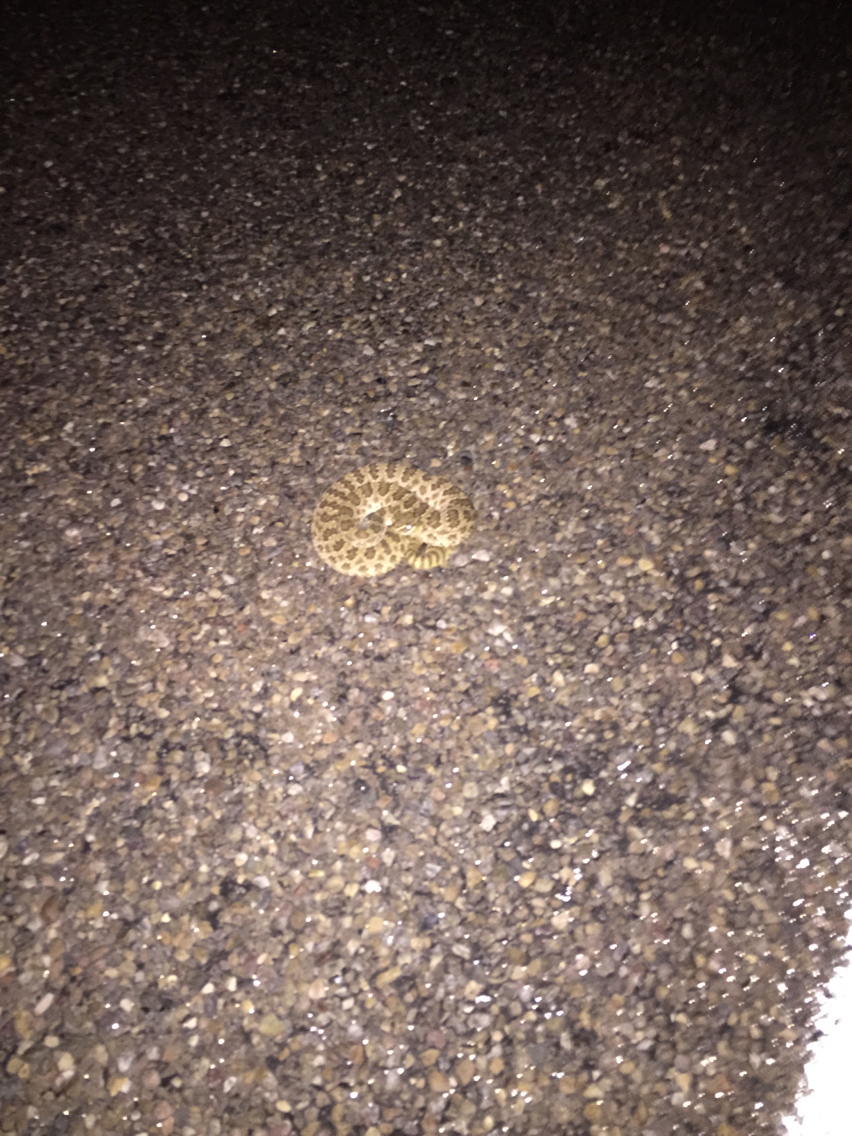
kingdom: Animalia
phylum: Chordata
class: Squamata
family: Viperidae
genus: Crotalus
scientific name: Crotalus viridis
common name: Prairie rattlesnake
